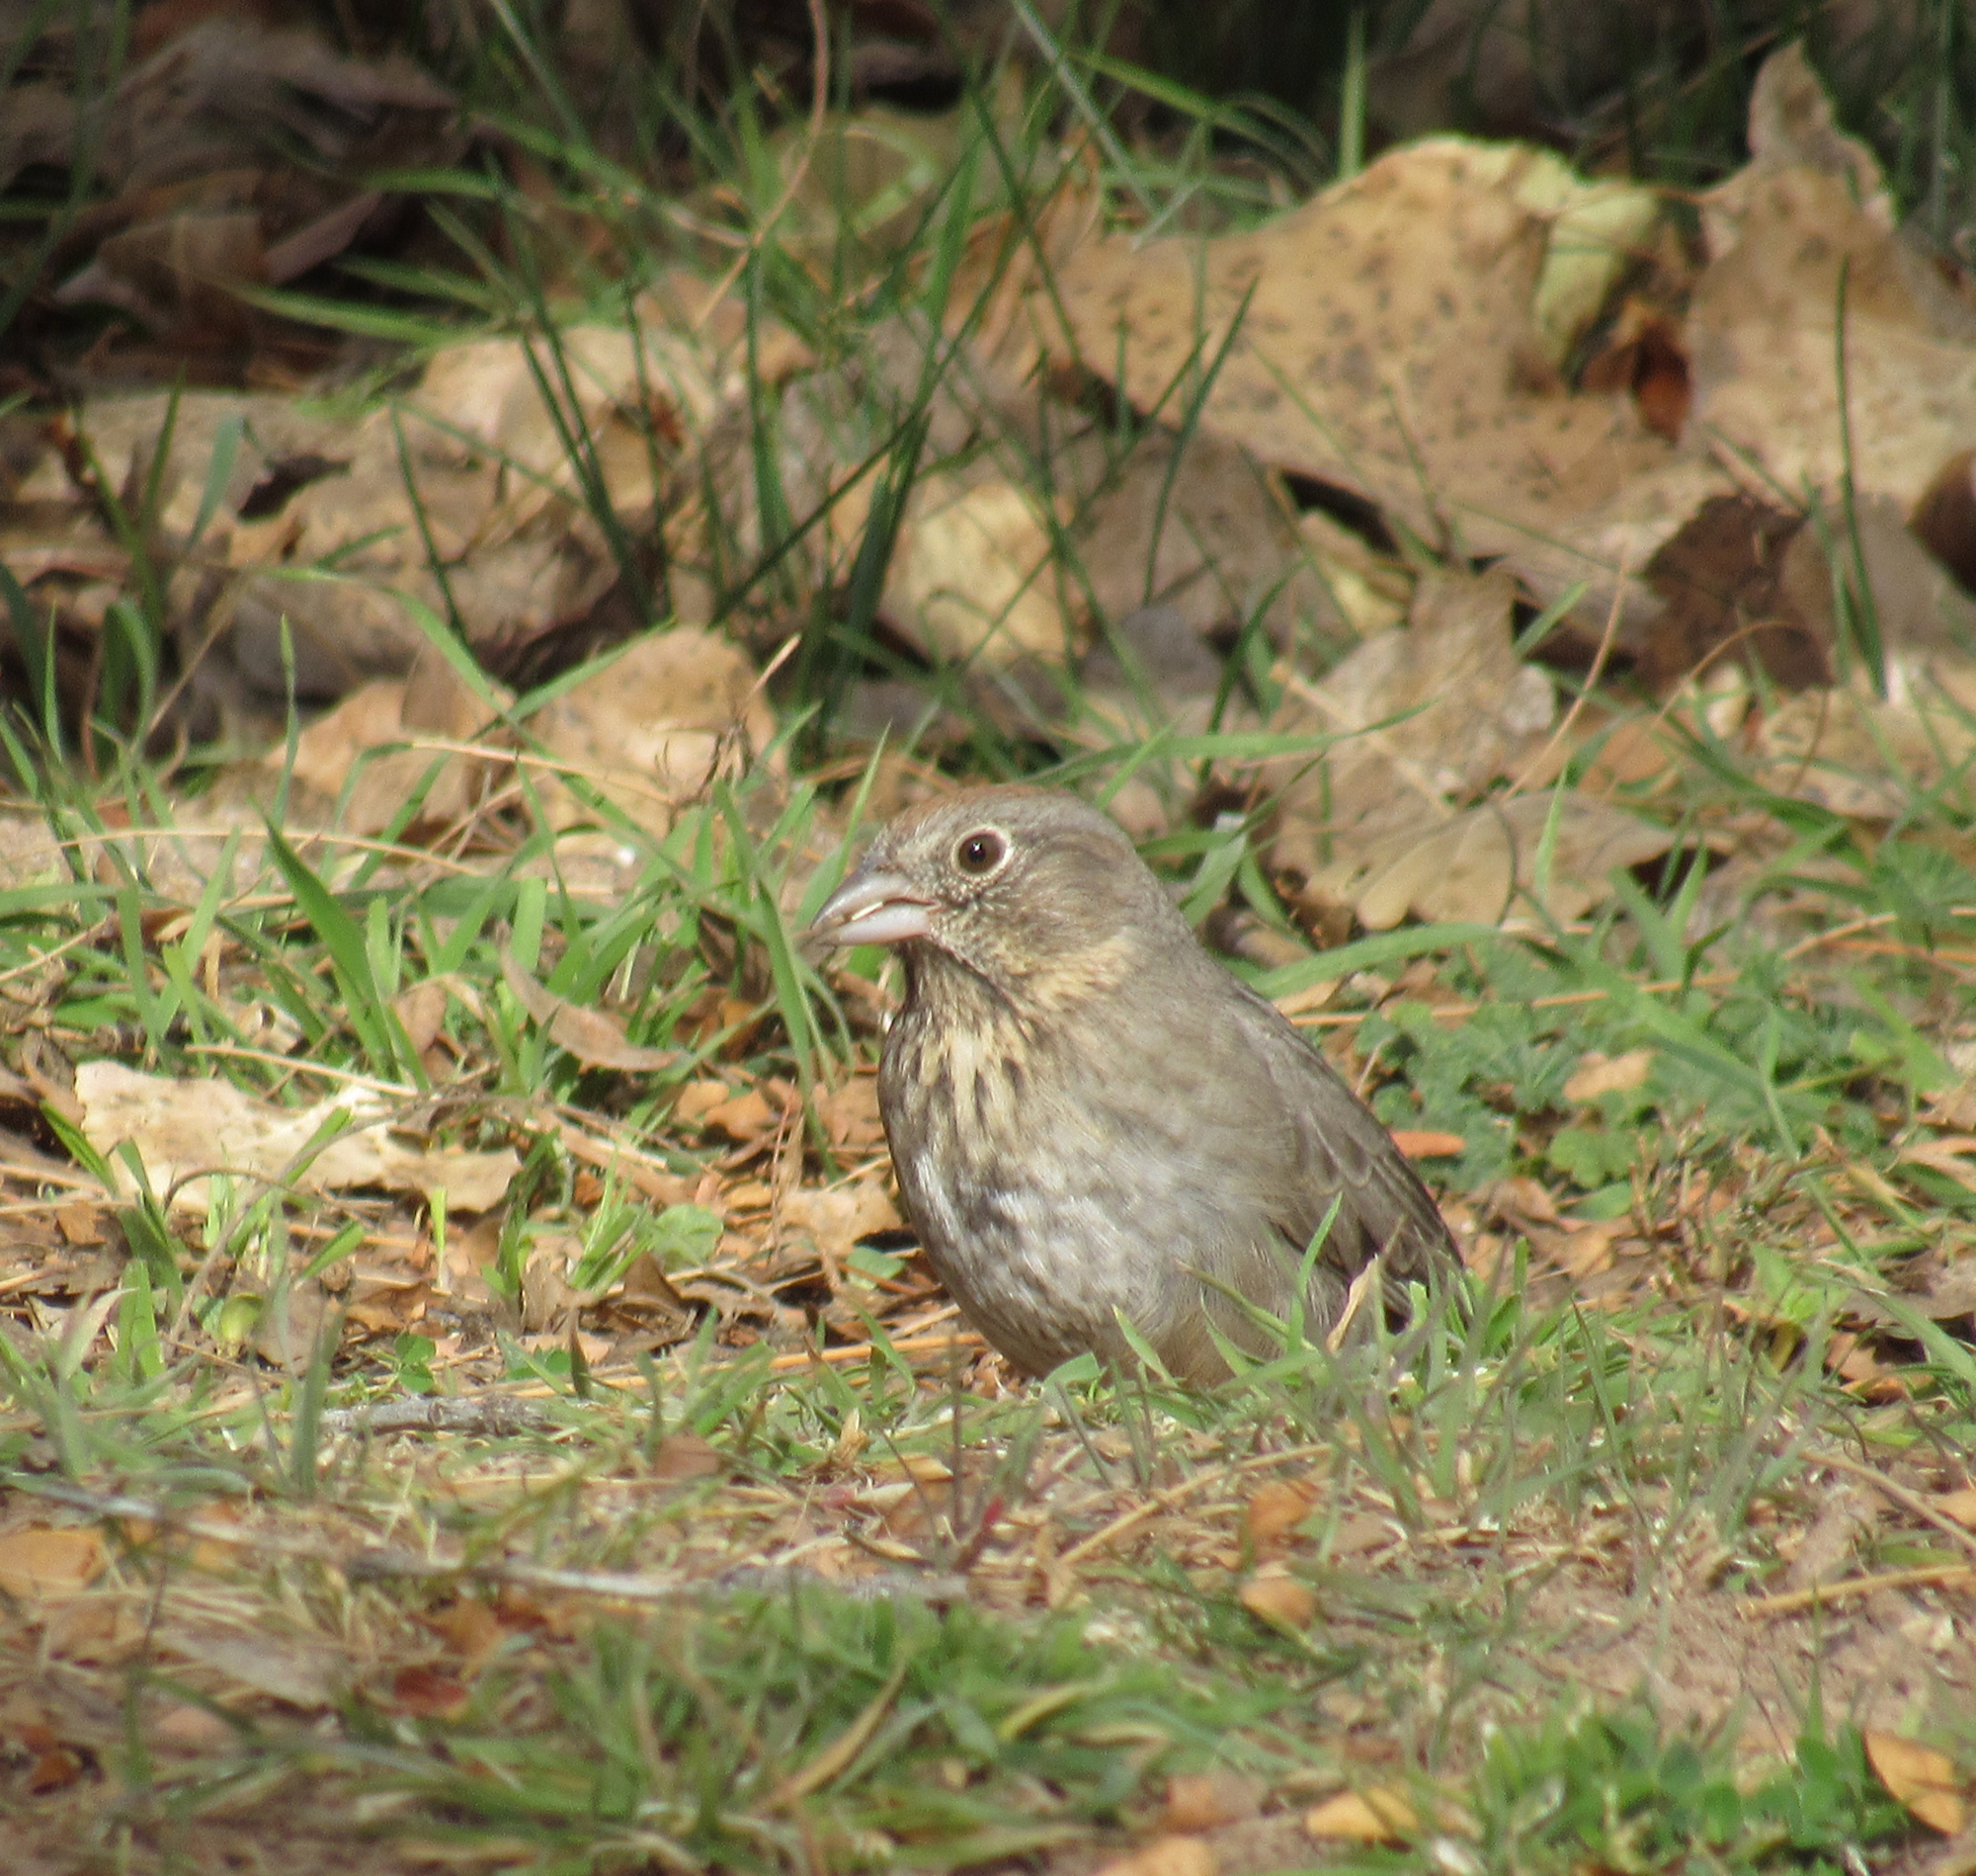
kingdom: Animalia
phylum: Chordata
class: Aves
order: Passeriformes
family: Passerellidae
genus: Melozone
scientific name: Melozone fusca
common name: Canyon towhee
